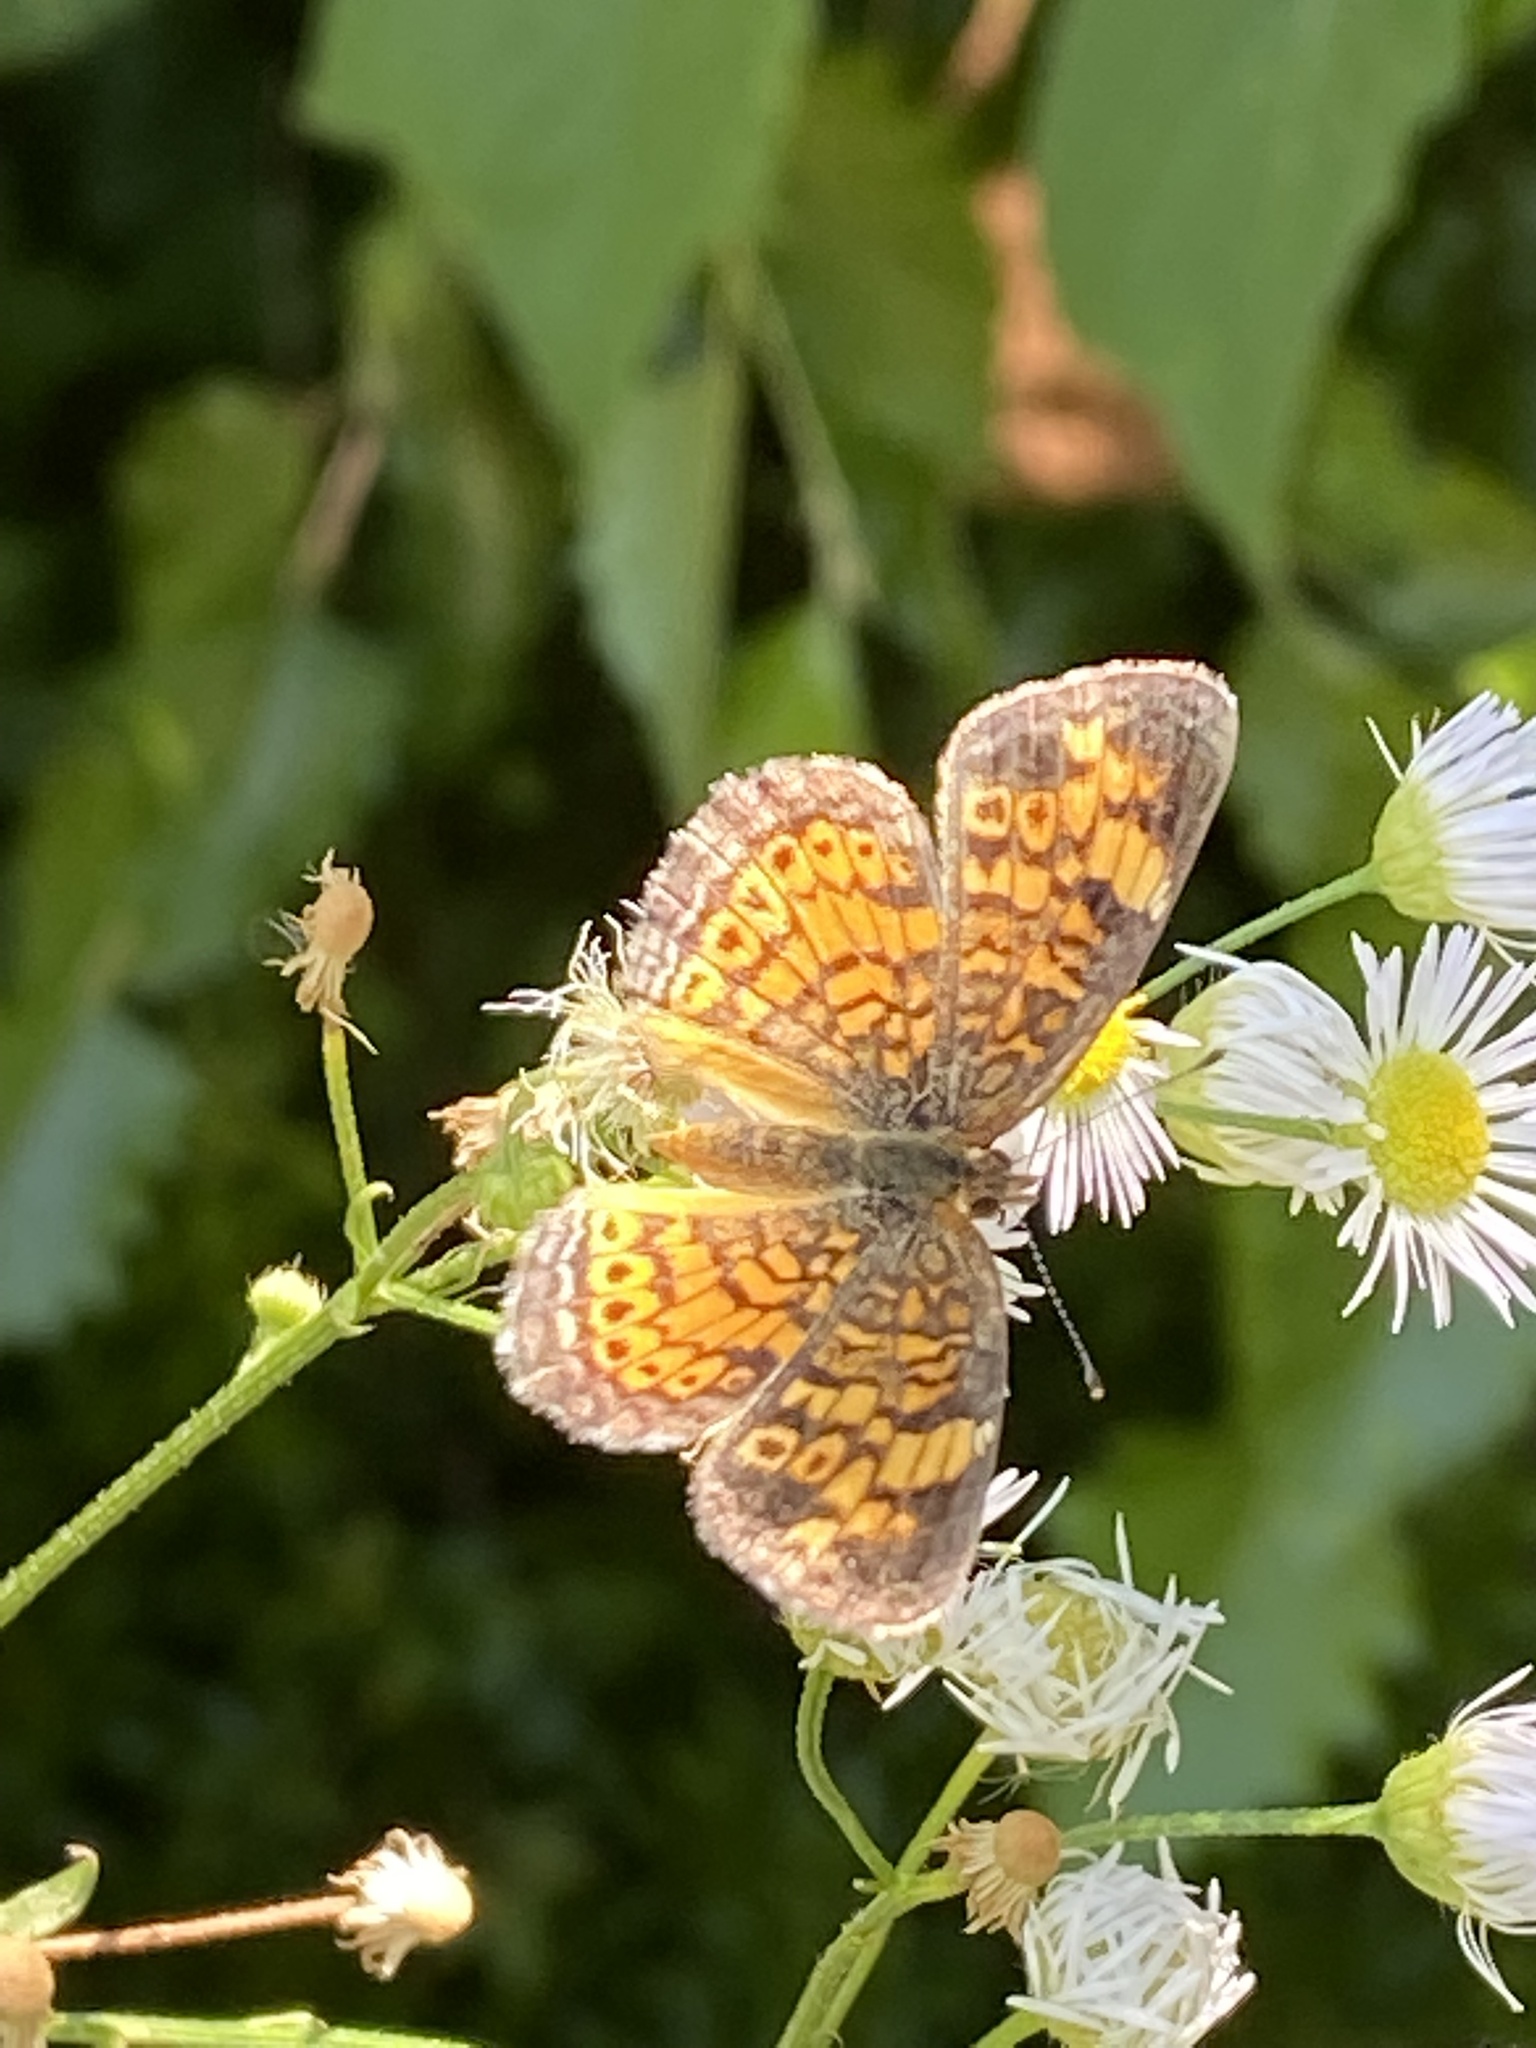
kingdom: Animalia
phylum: Arthropoda
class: Insecta
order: Lepidoptera
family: Nymphalidae
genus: Phyciodes
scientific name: Phyciodes tharos
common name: Pearl crescent
